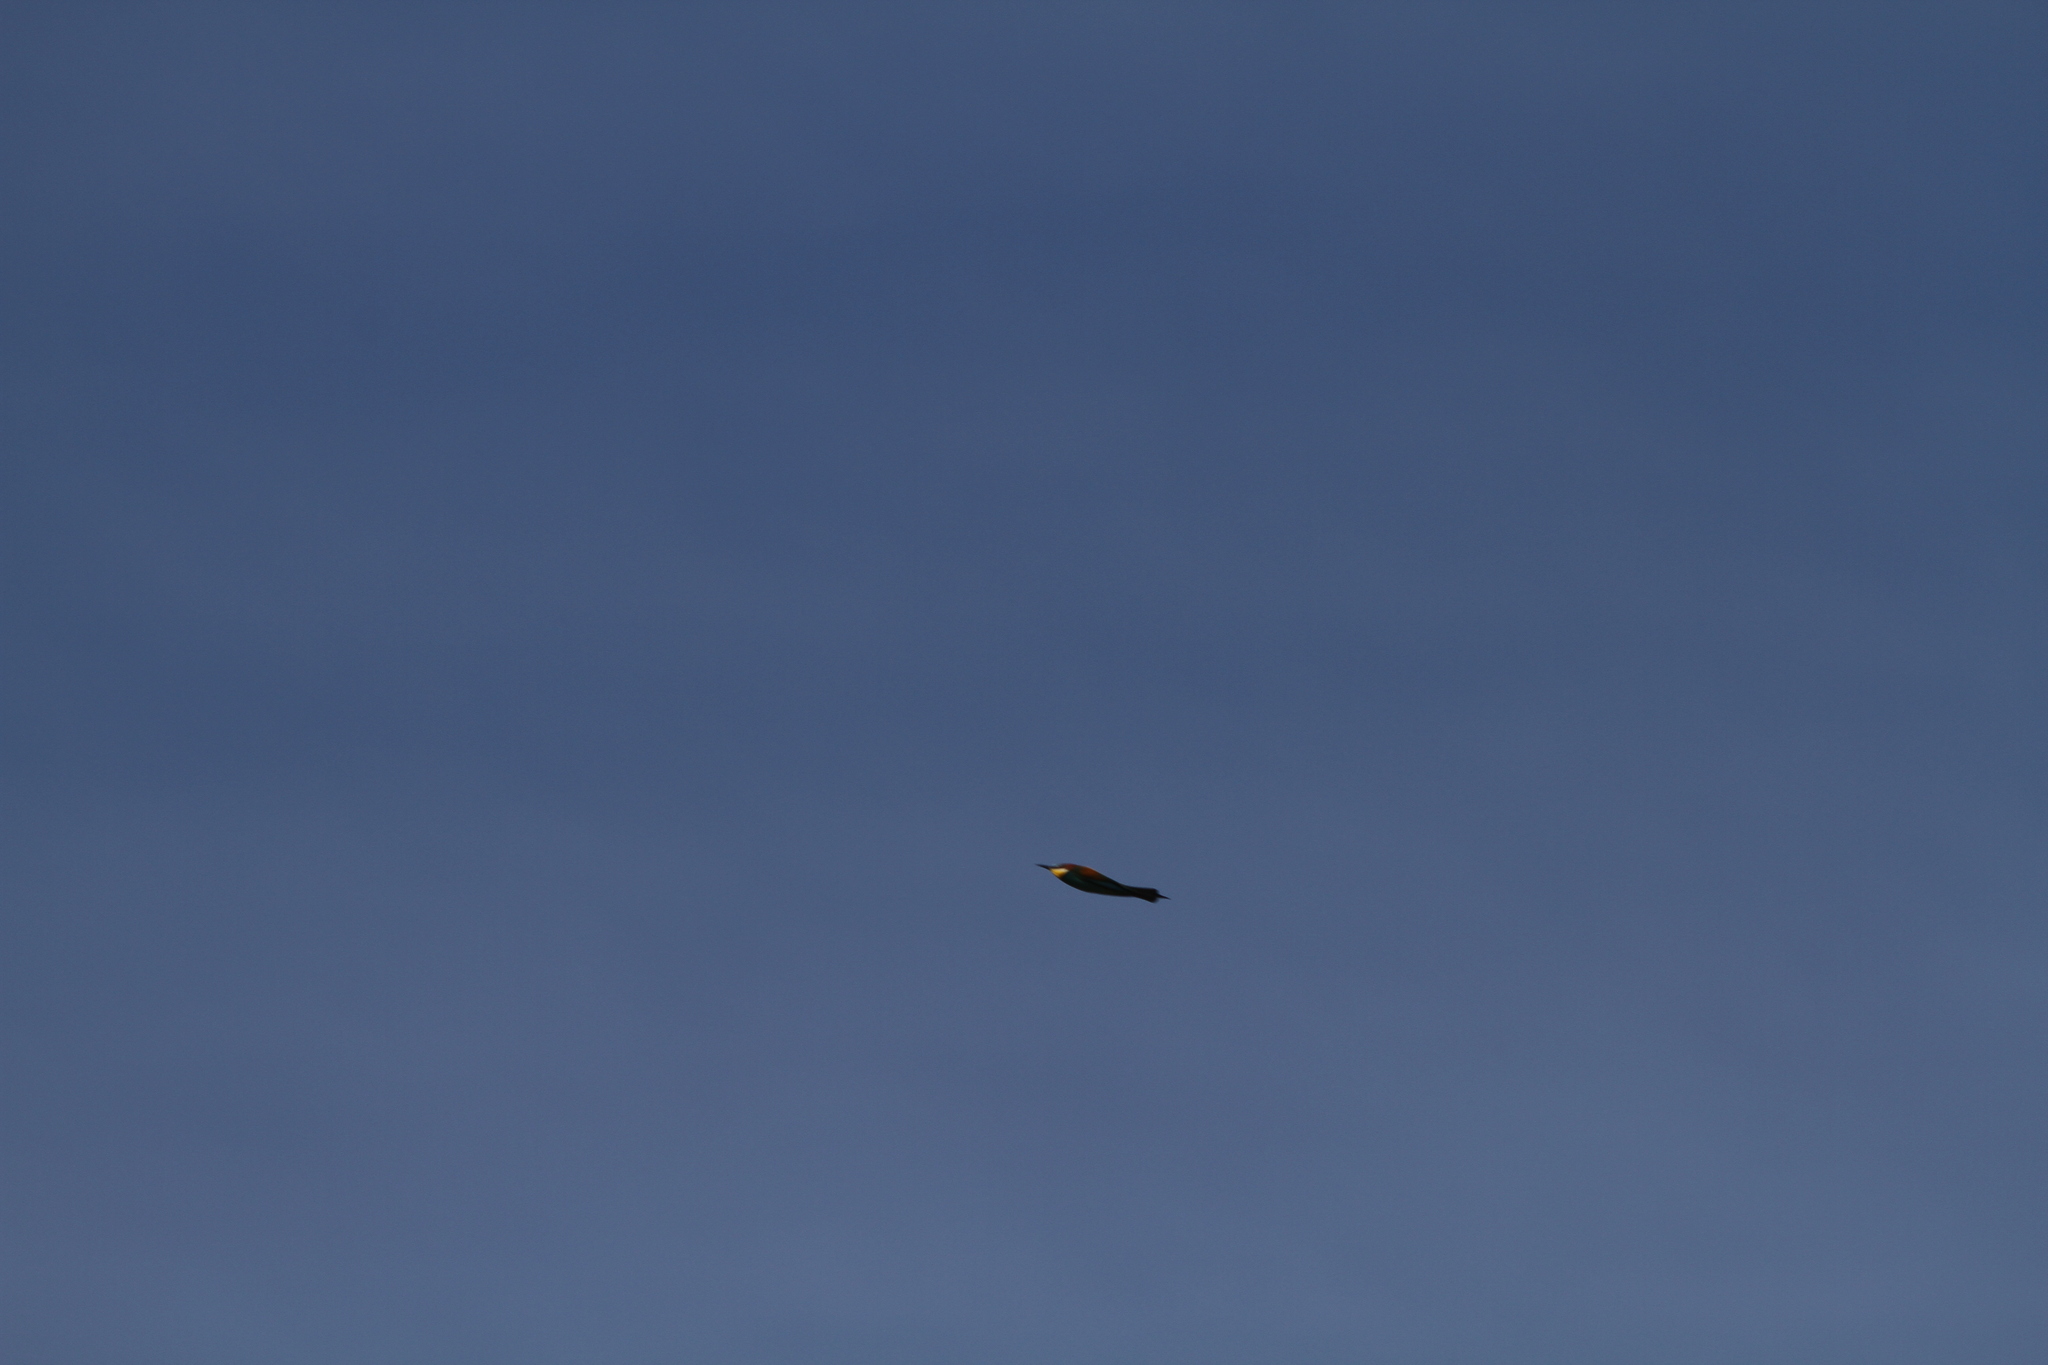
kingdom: Animalia
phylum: Chordata
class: Aves
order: Coraciiformes
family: Meropidae
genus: Merops
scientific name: Merops apiaster
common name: European bee-eater
